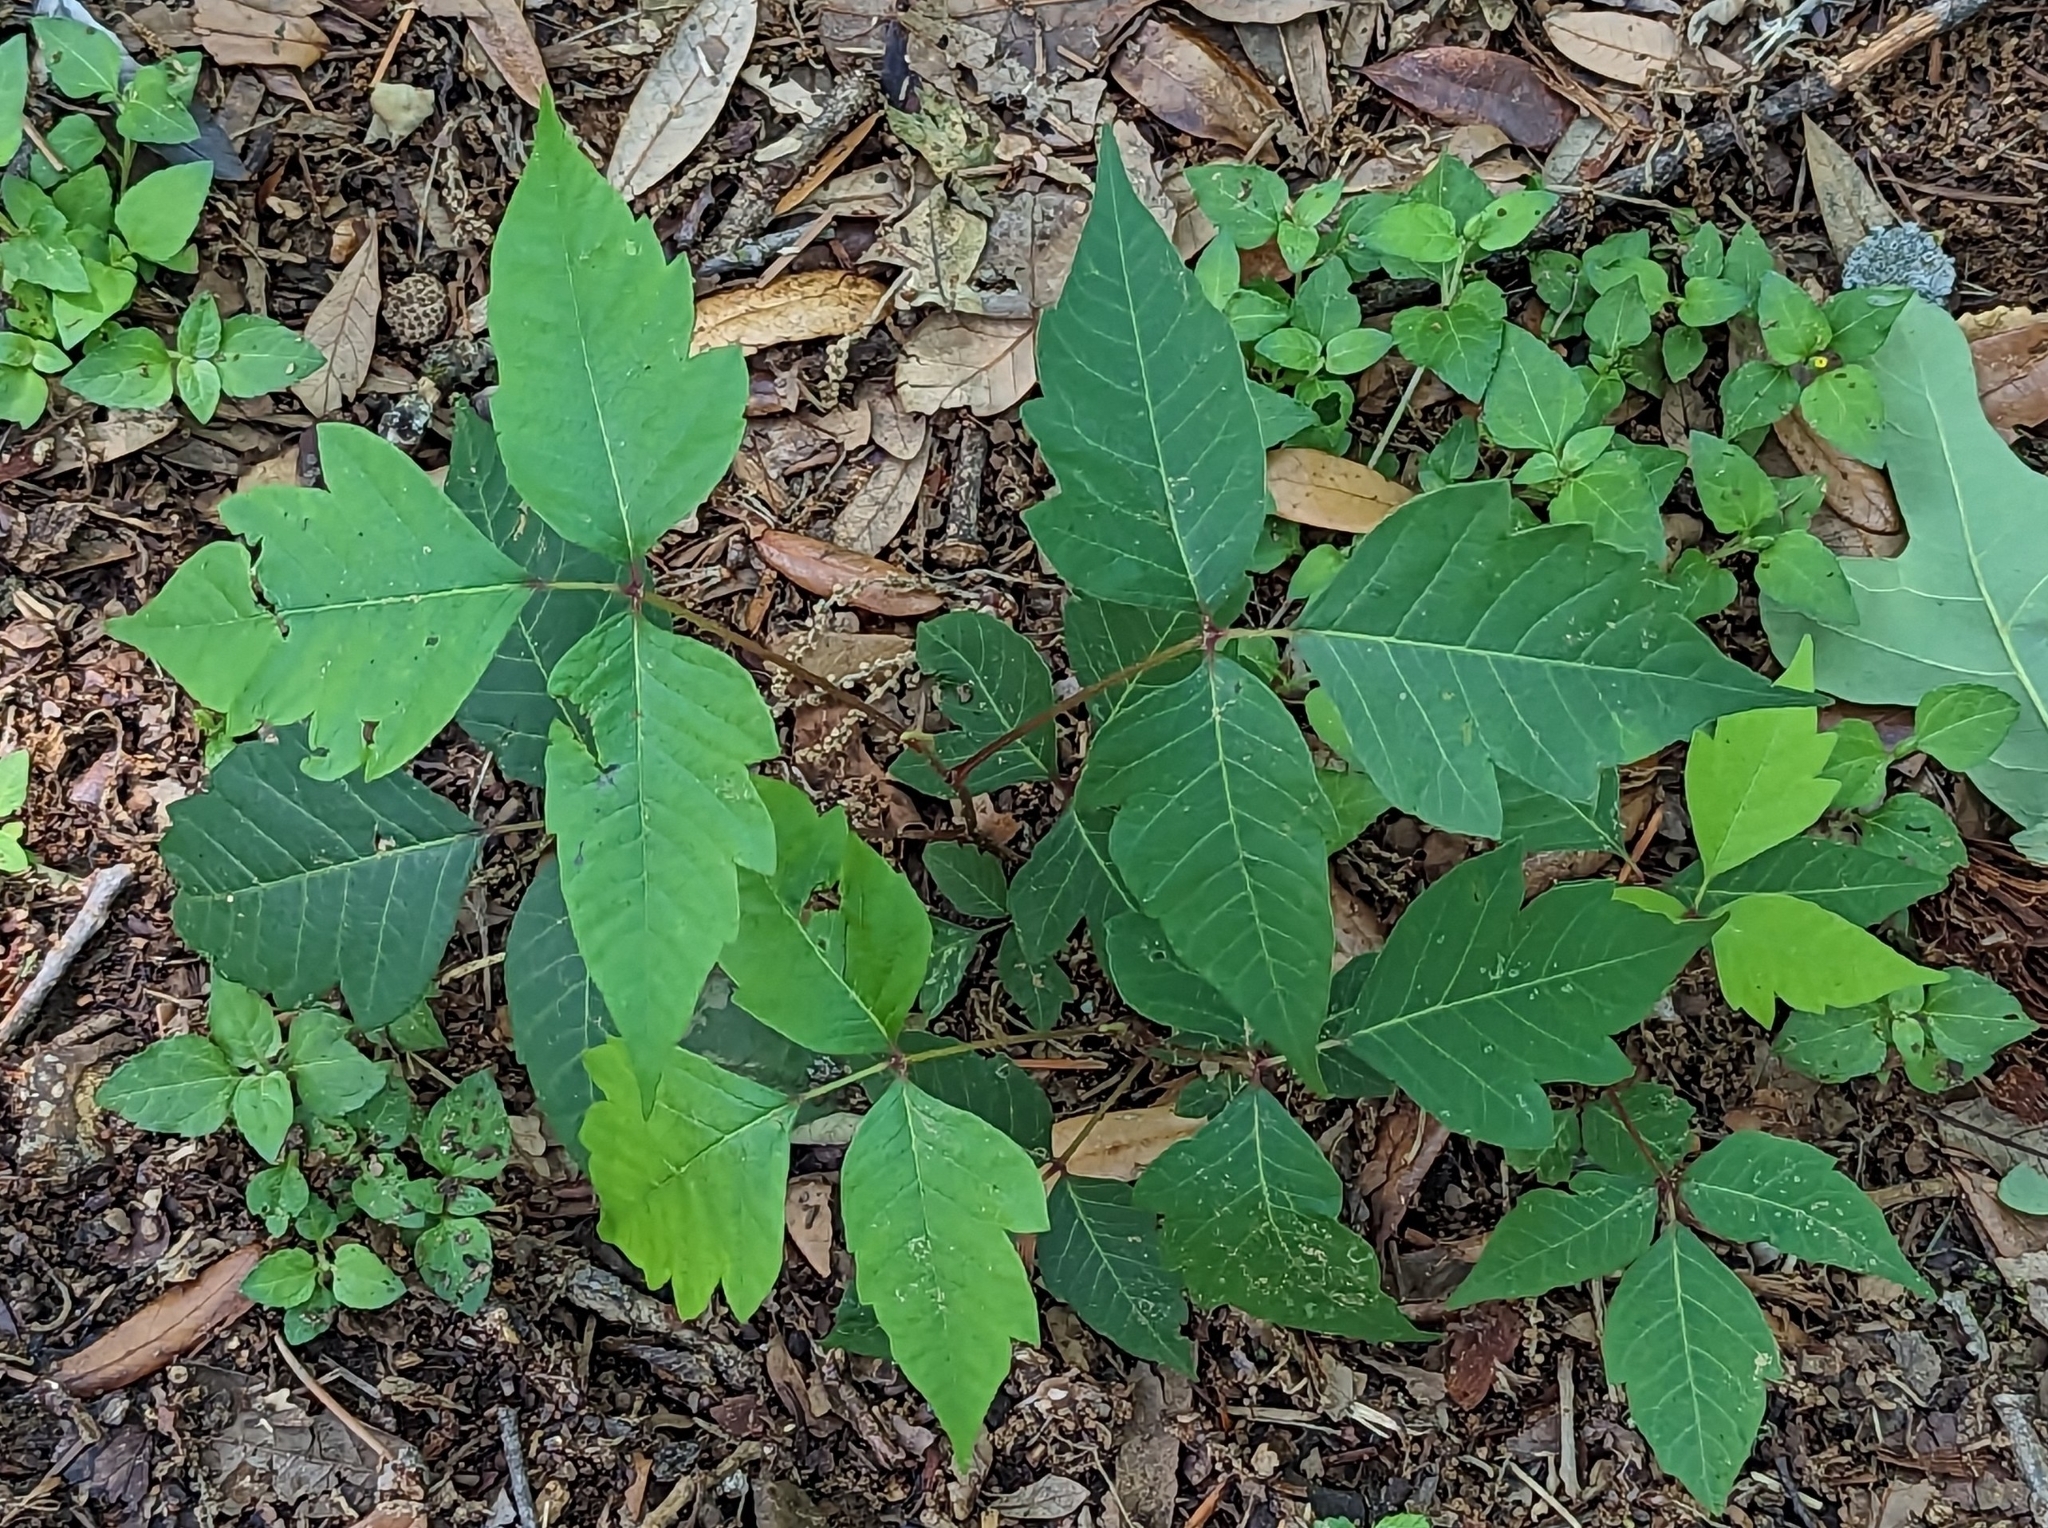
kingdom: Plantae
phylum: Tracheophyta
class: Magnoliopsida
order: Sapindales
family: Anacardiaceae
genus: Toxicodendron
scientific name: Toxicodendron radicans
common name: Poison ivy
